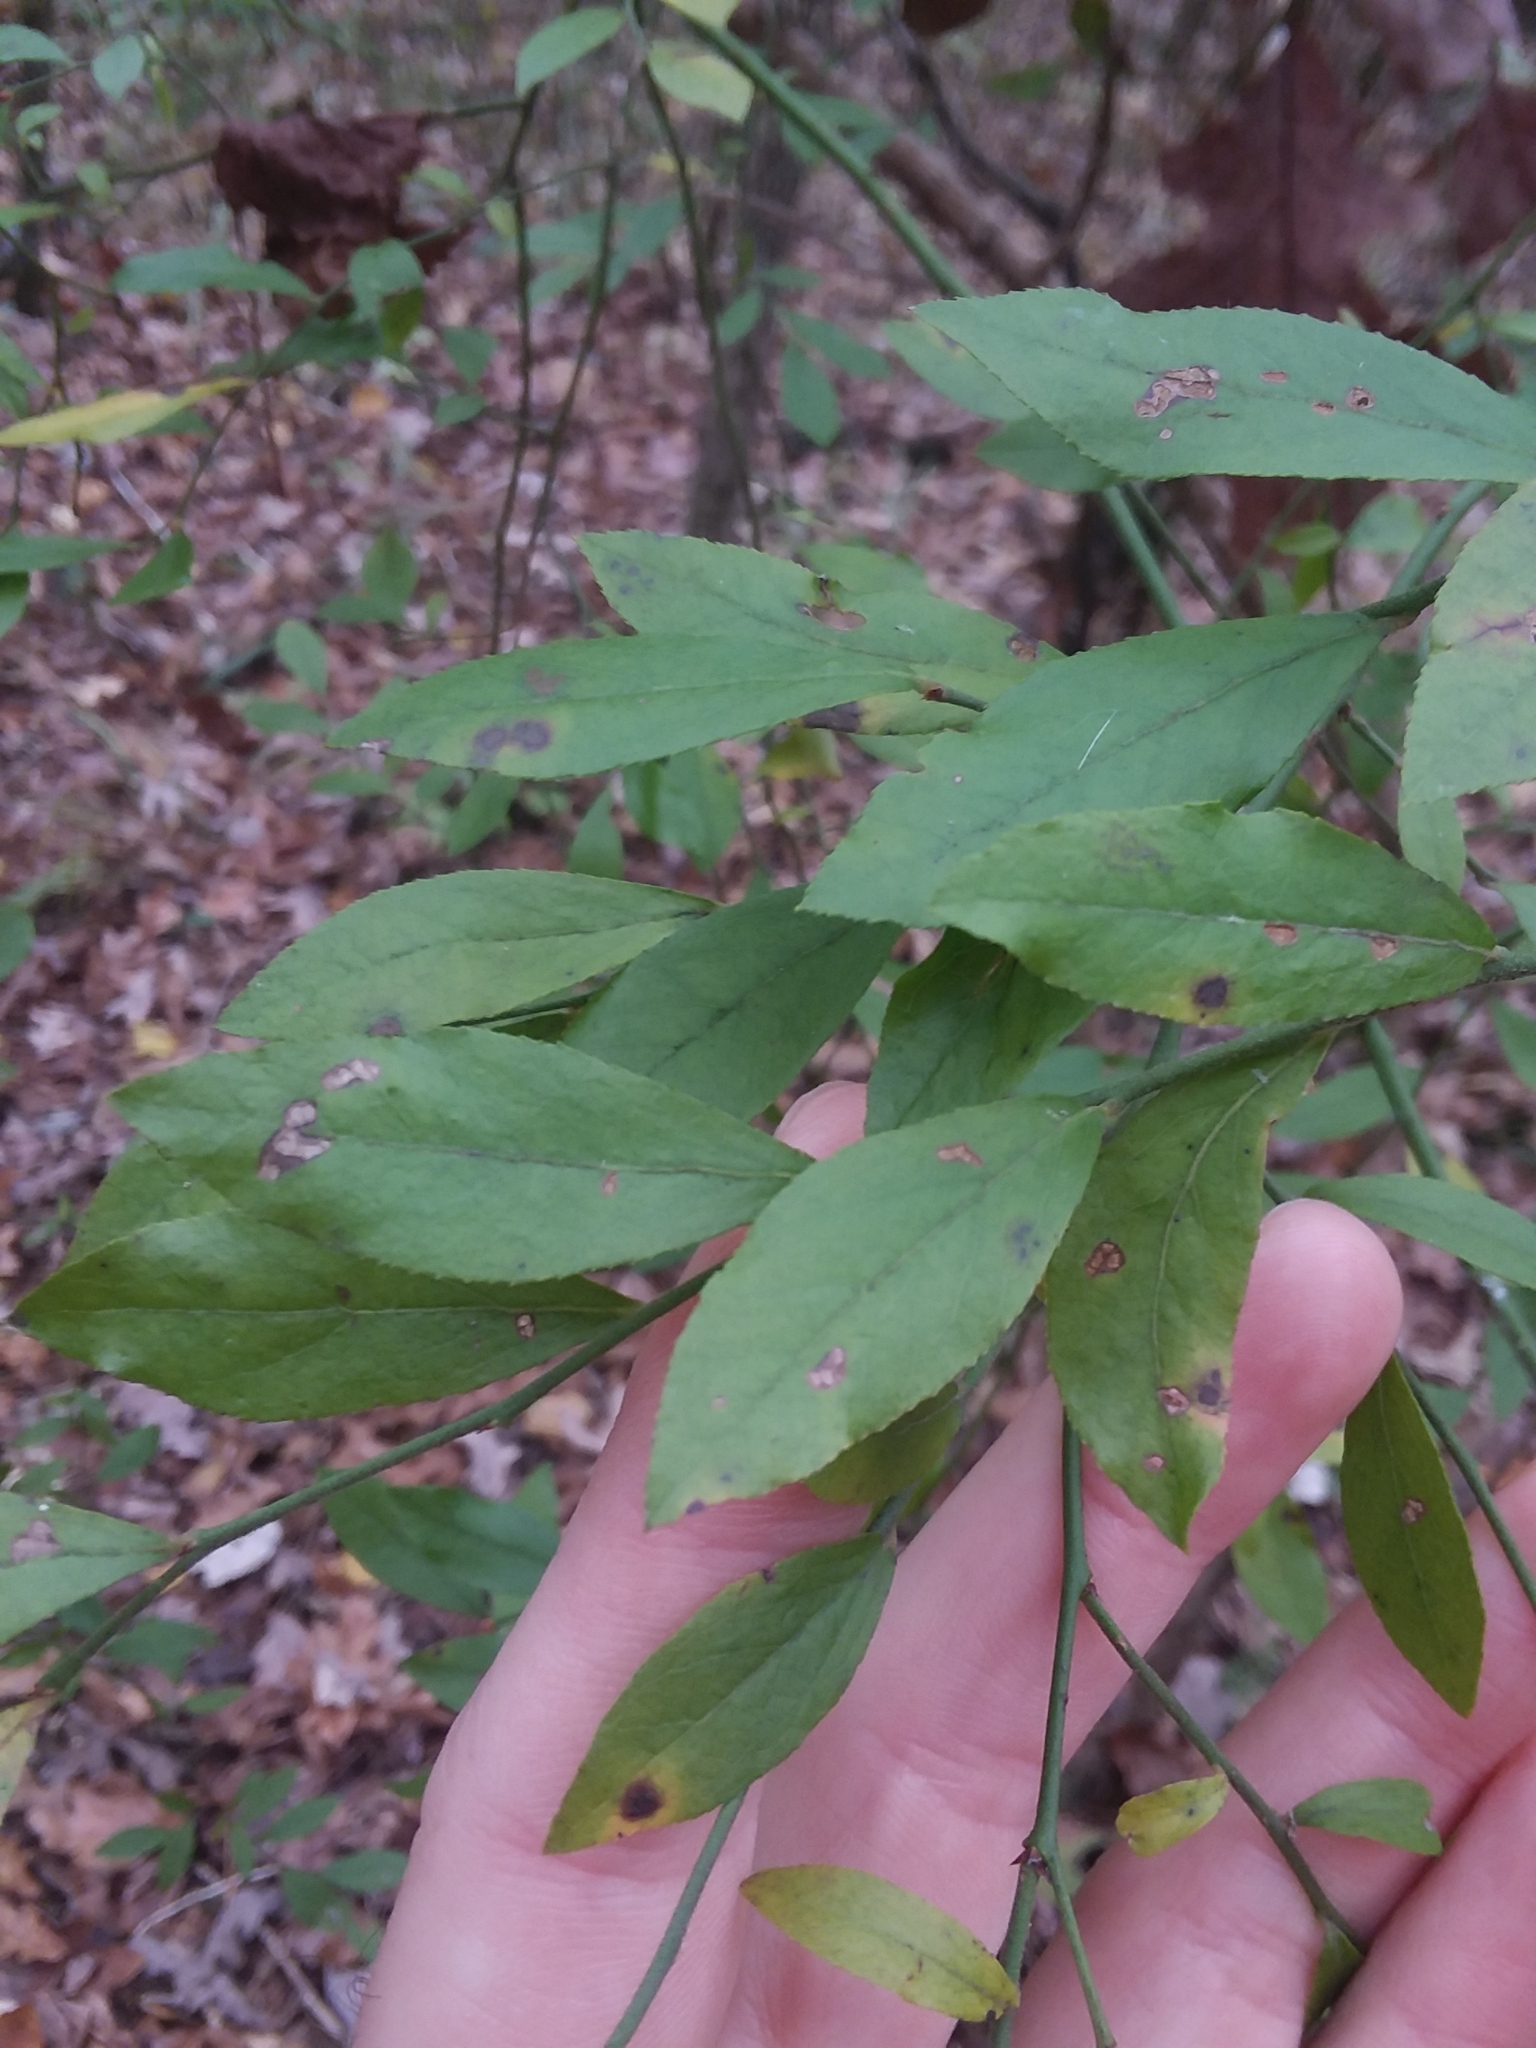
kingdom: Plantae
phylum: Tracheophyta
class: Magnoliopsida
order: Ericales
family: Ericaceae
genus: Vaccinium
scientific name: Vaccinium corymbosum
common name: Blueberry
